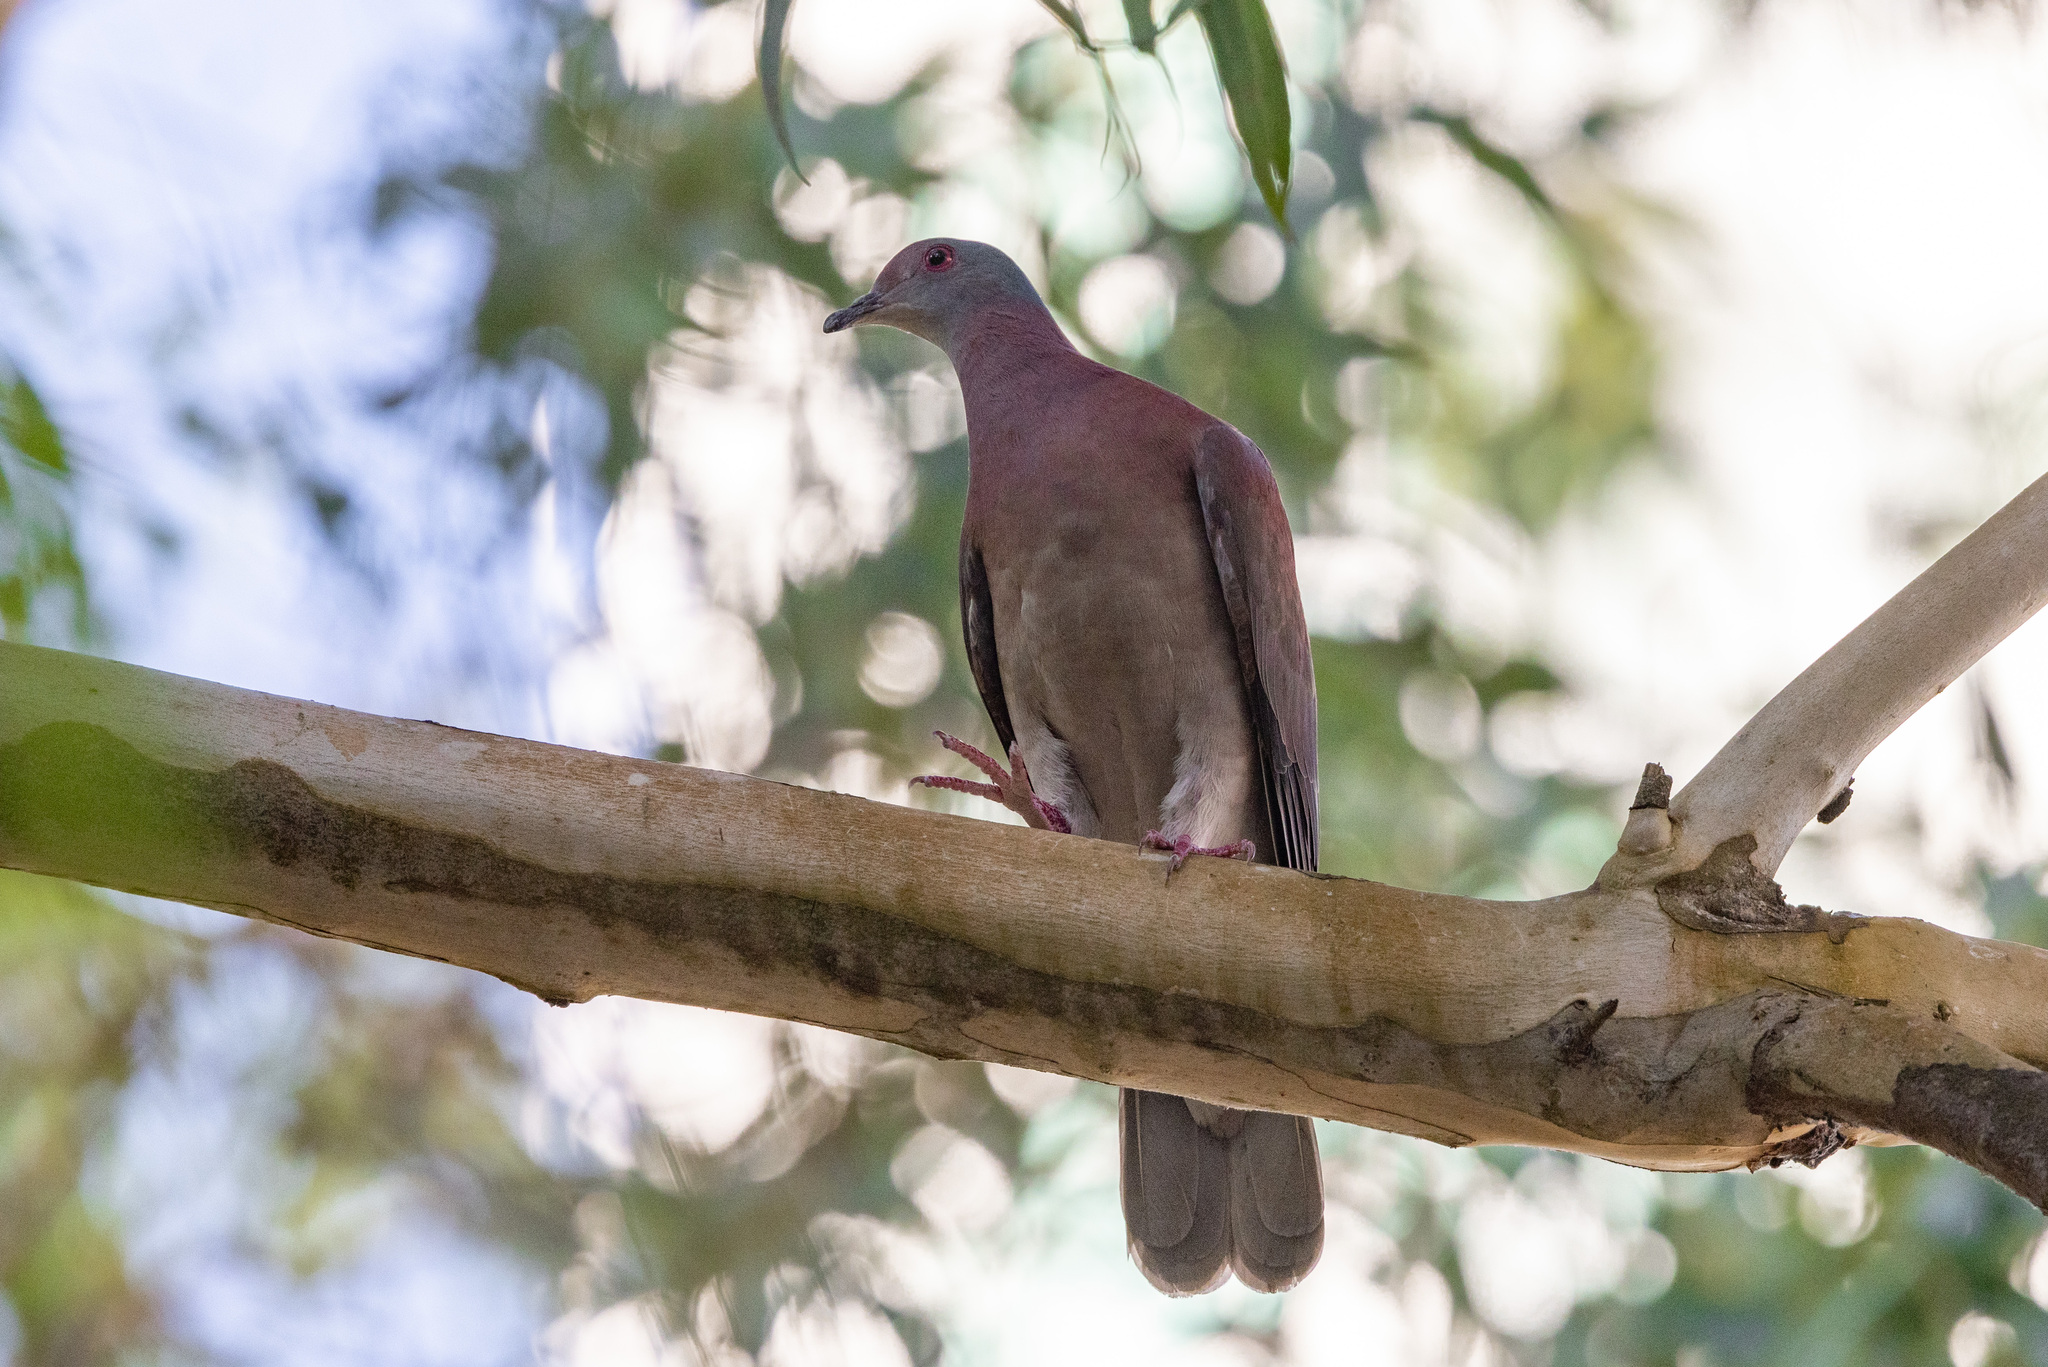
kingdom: Animalia
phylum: Chordata
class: Aves
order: Columbiformes
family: Columbidae
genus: Patagioenas
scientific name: Patagioenas cayennensis
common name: Pale-vented pigeon
